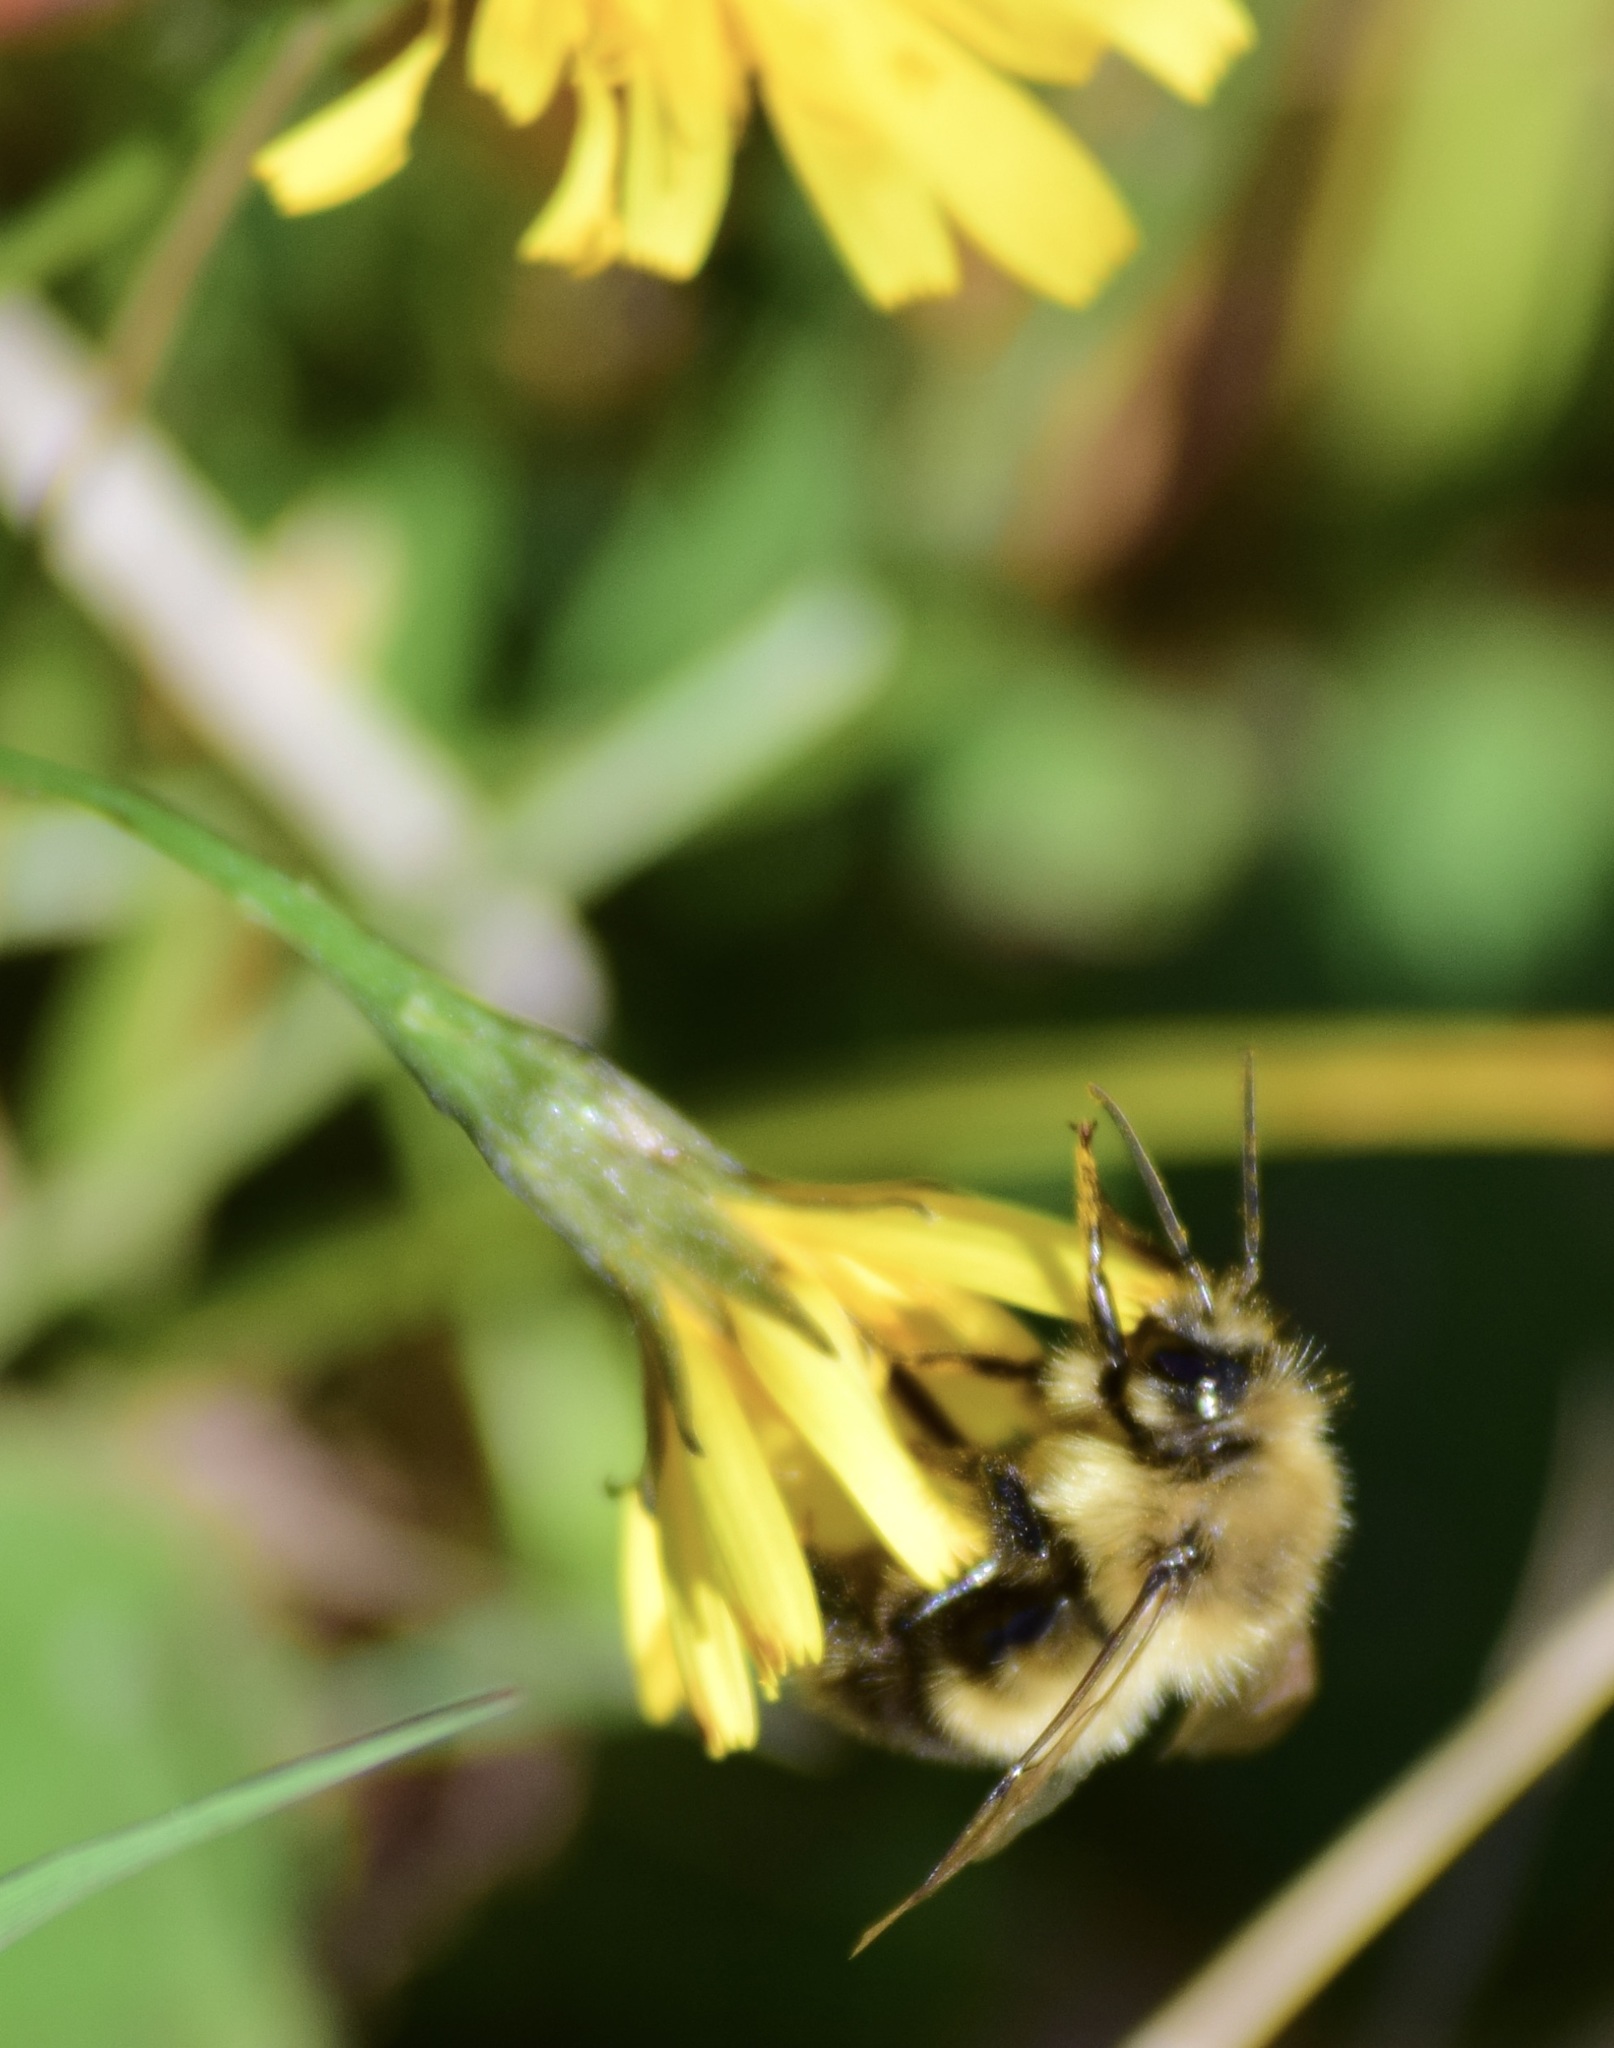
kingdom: Animalia
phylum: Arthropoda
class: Insecta
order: Hymenoptera
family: Apidae
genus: Pyrobombus
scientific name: Pyrobombus
